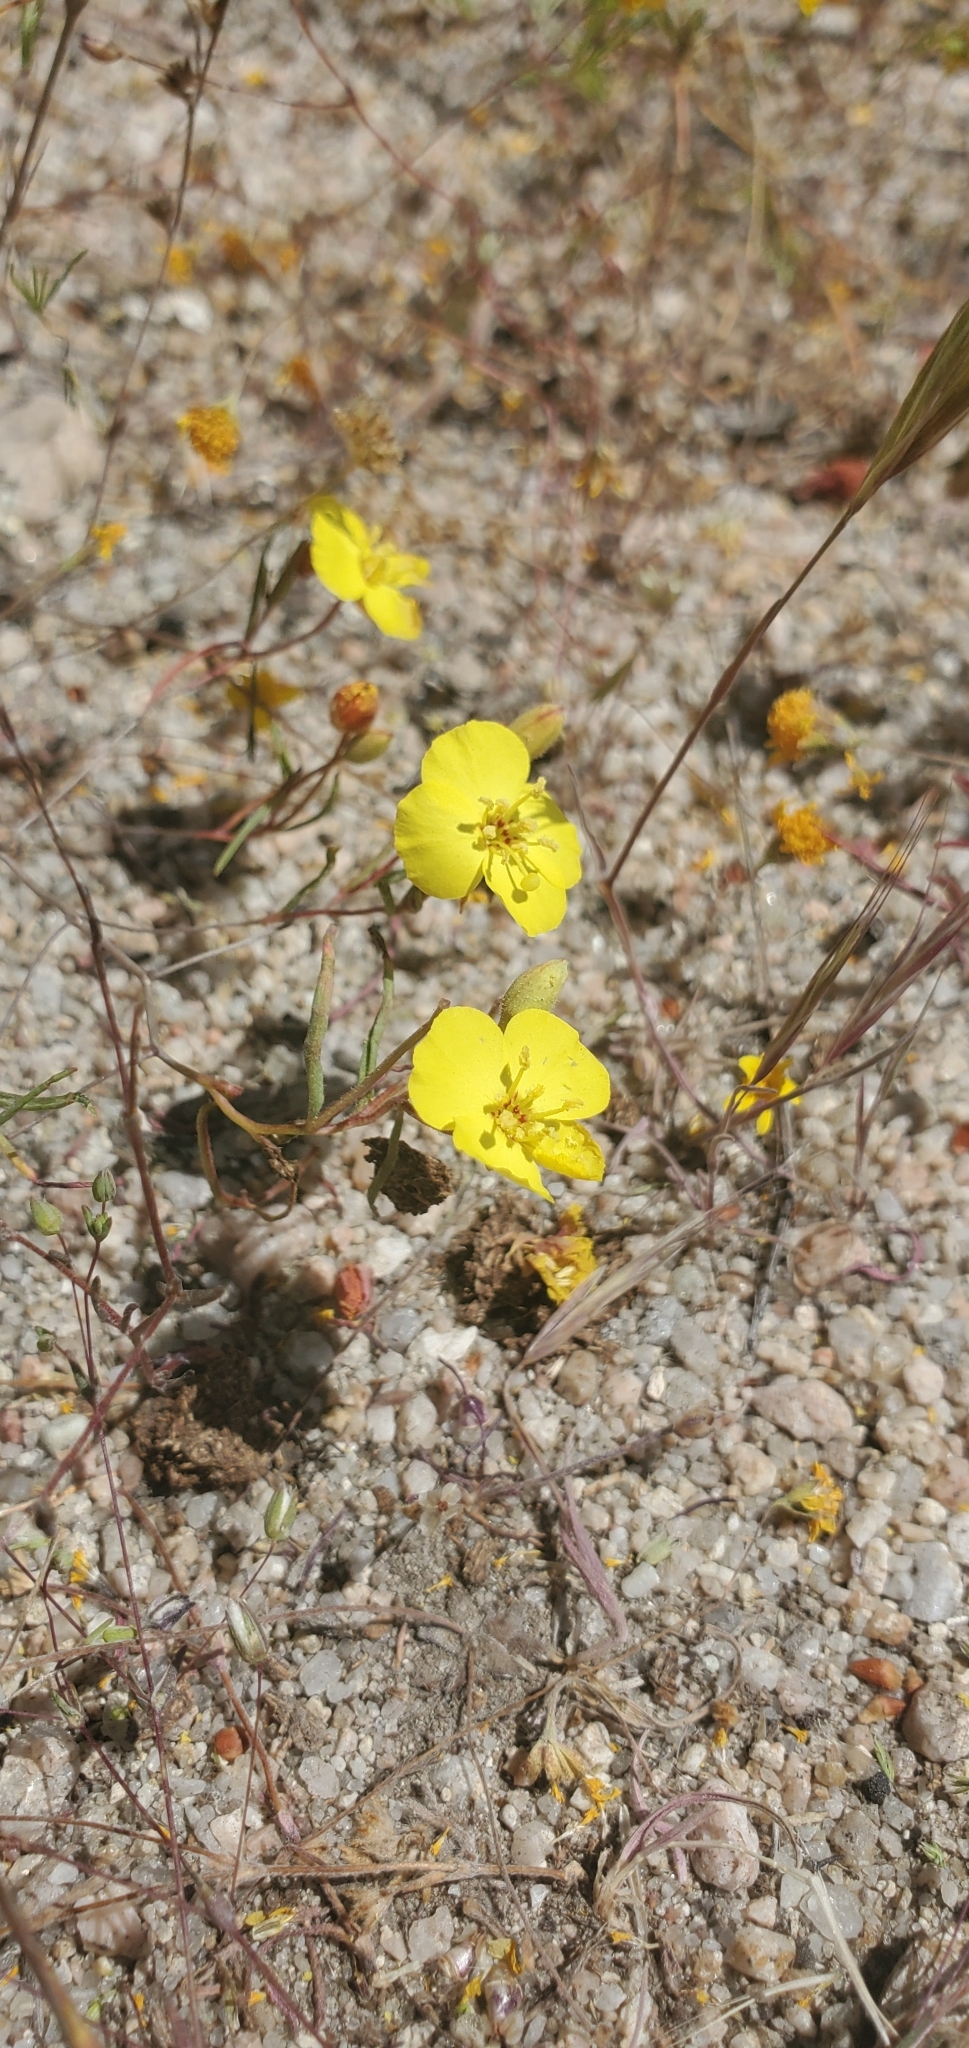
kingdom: Plantae
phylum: Tracheophyta
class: Magnoliopsida
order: Myrtales
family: Onagraceae
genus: Camissonia
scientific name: Camissonia campestris
